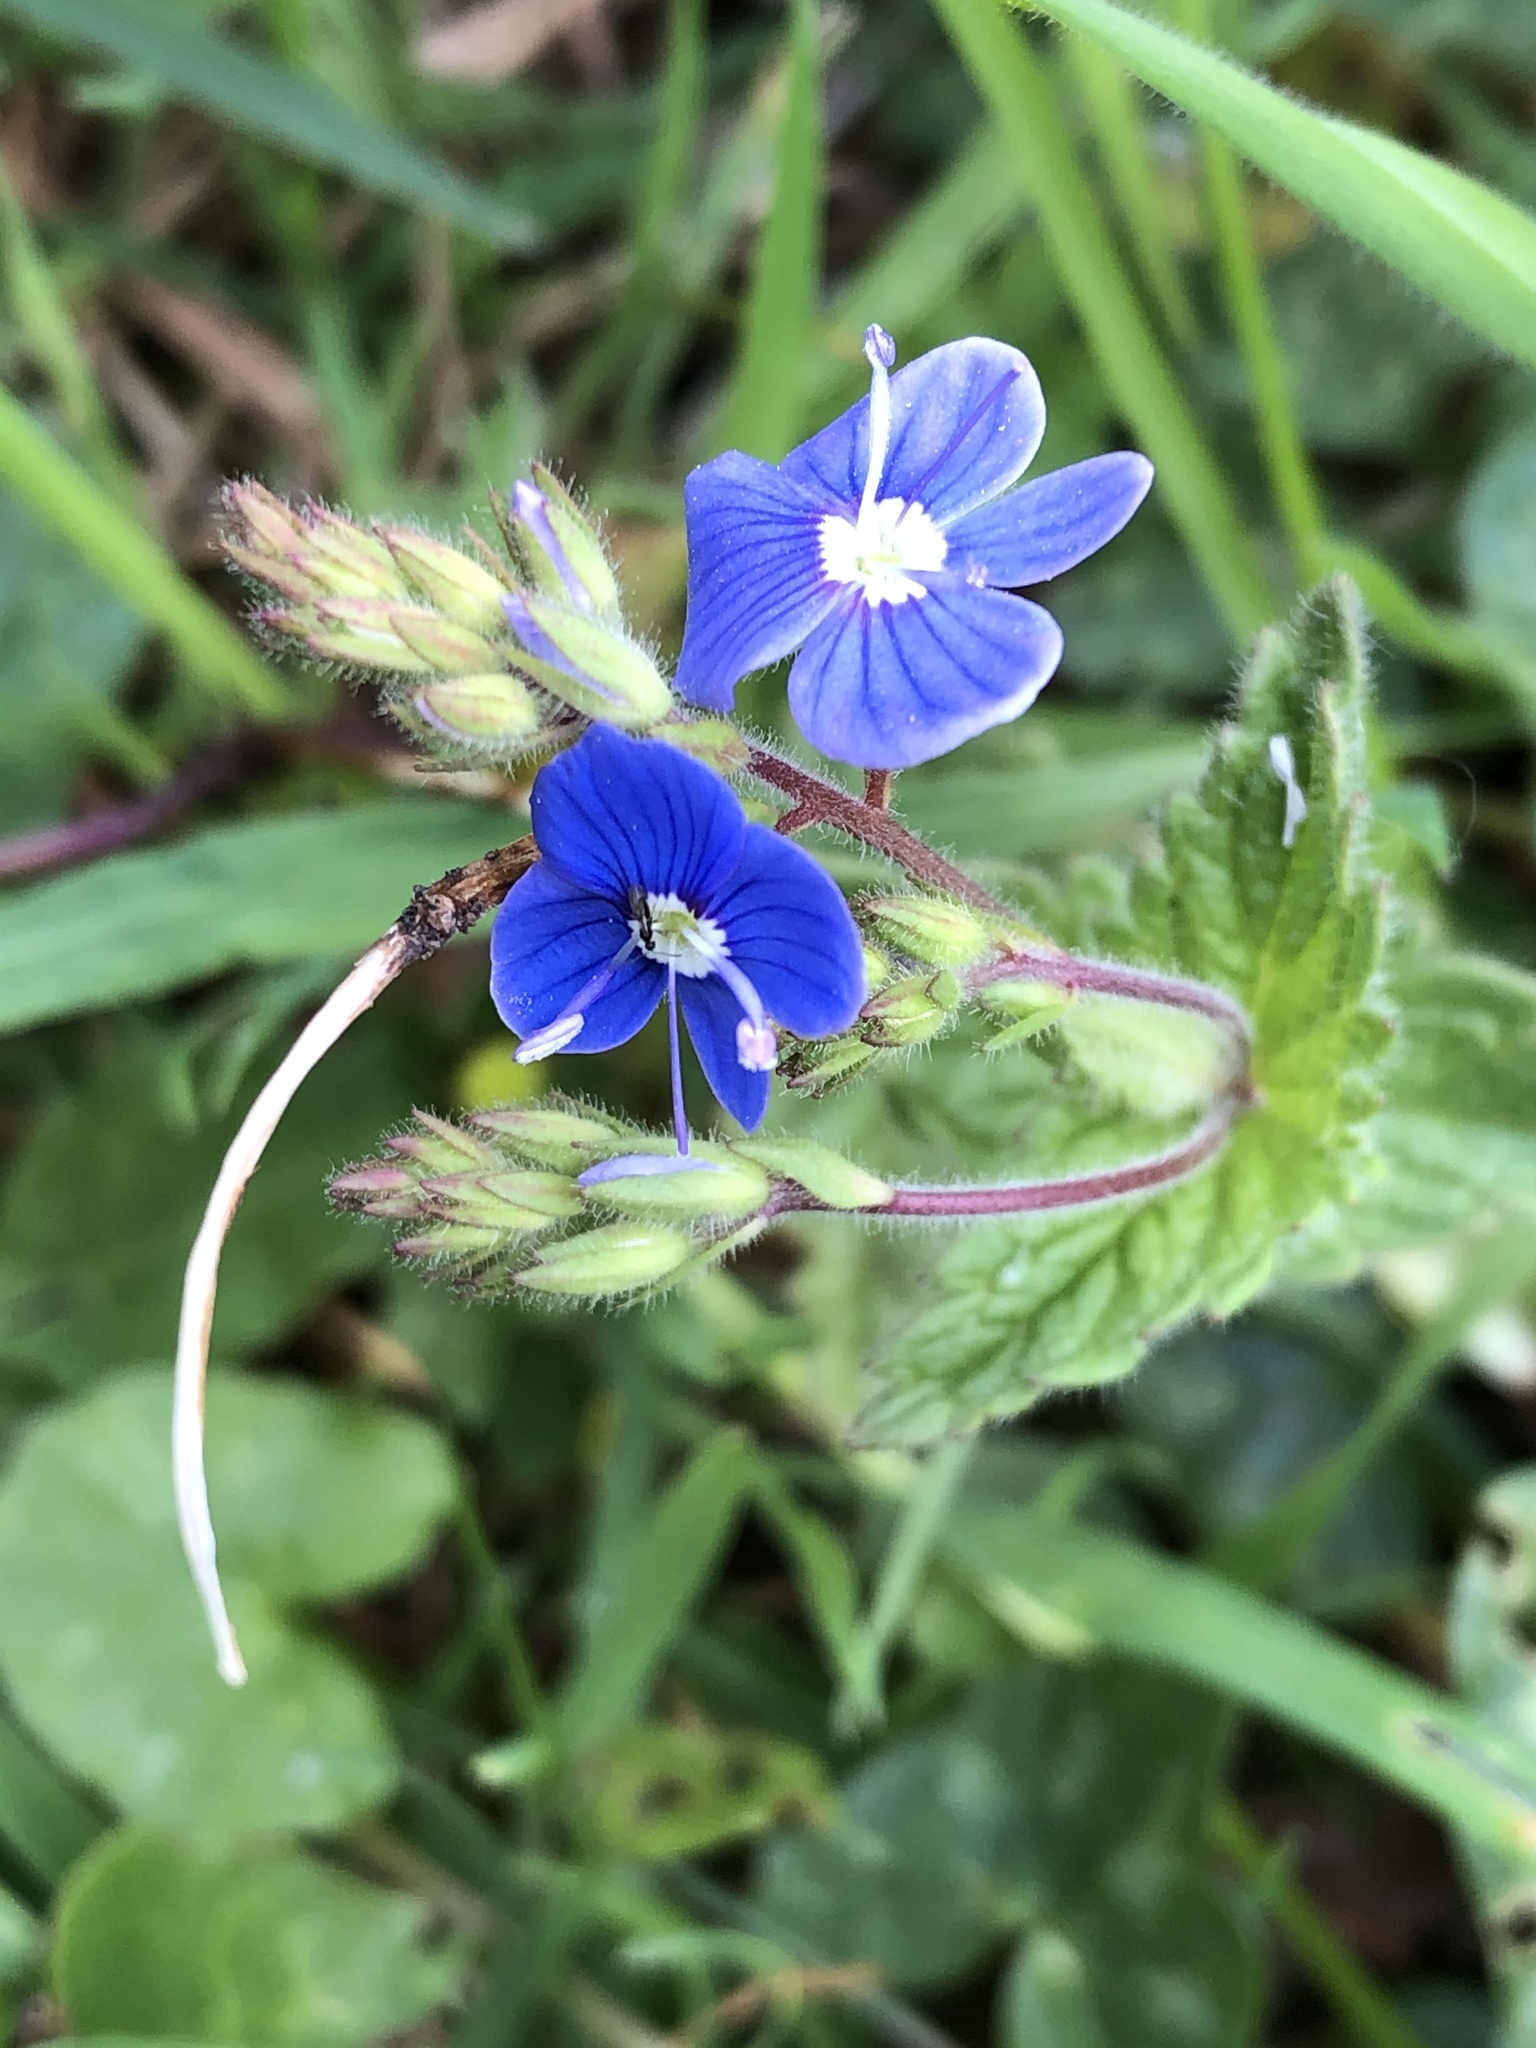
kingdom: Plantae
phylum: Tracheophyta
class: Magnoliopsida
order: Lamiales
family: Plantaginaceae
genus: Veronica
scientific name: Veronica chamaedrys
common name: Germander speedwell
